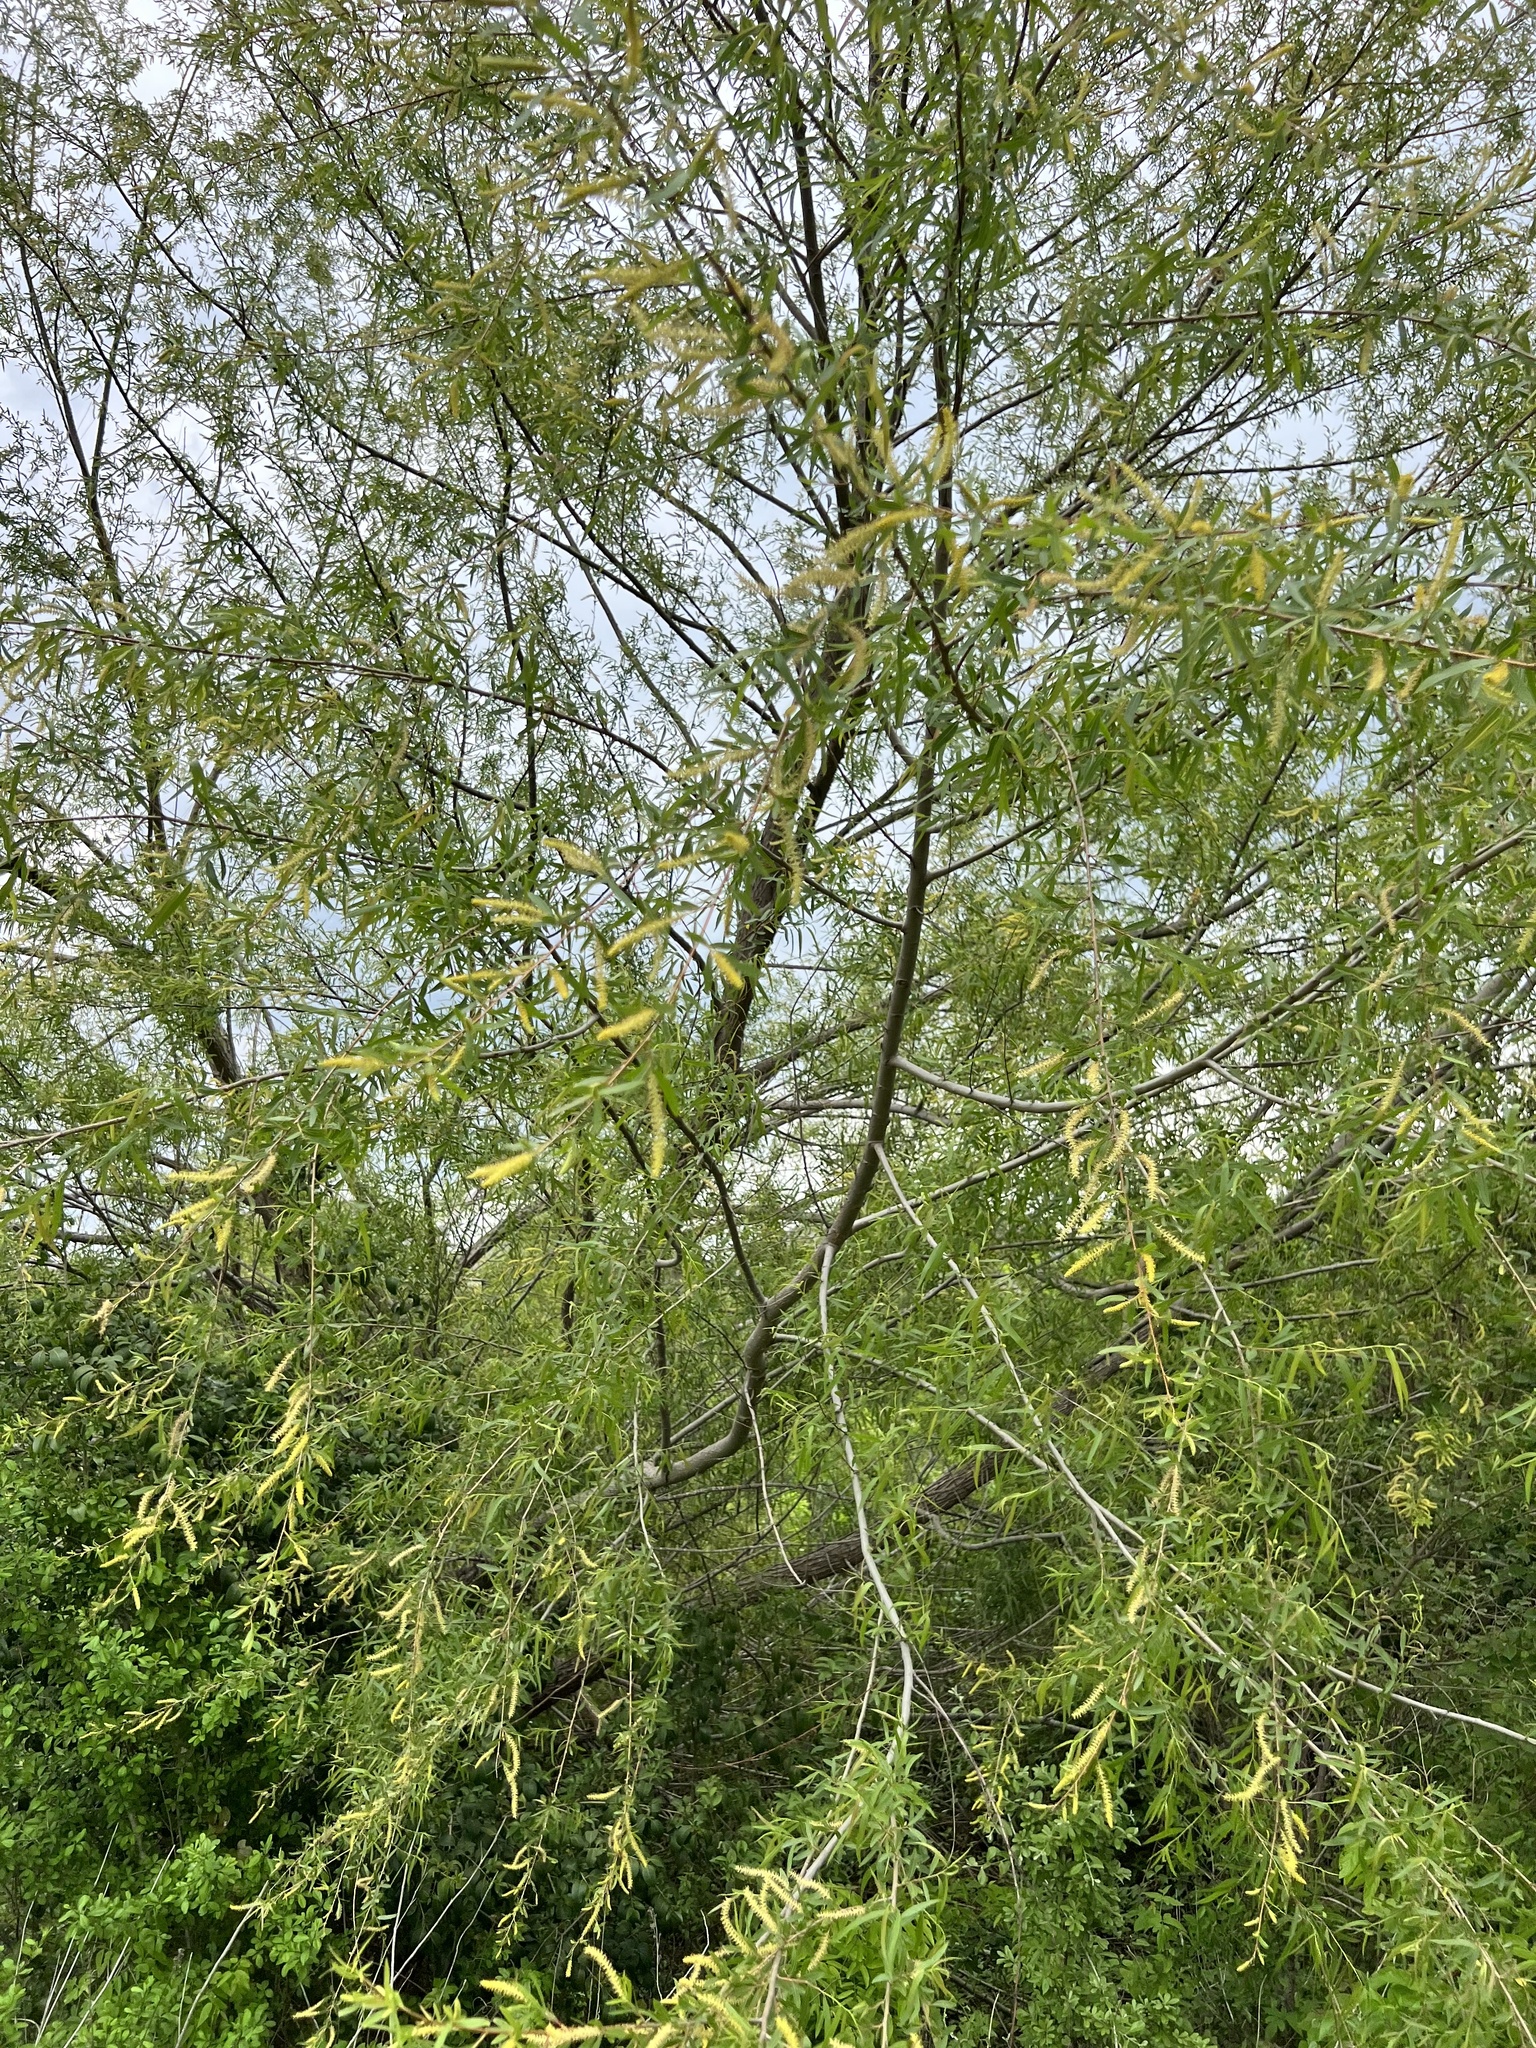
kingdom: Plantae
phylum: Tracheophyta
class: Magnoliopsida
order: Malpighiales
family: Salicaceae
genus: Salix
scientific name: Salix nigra
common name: Black willow
